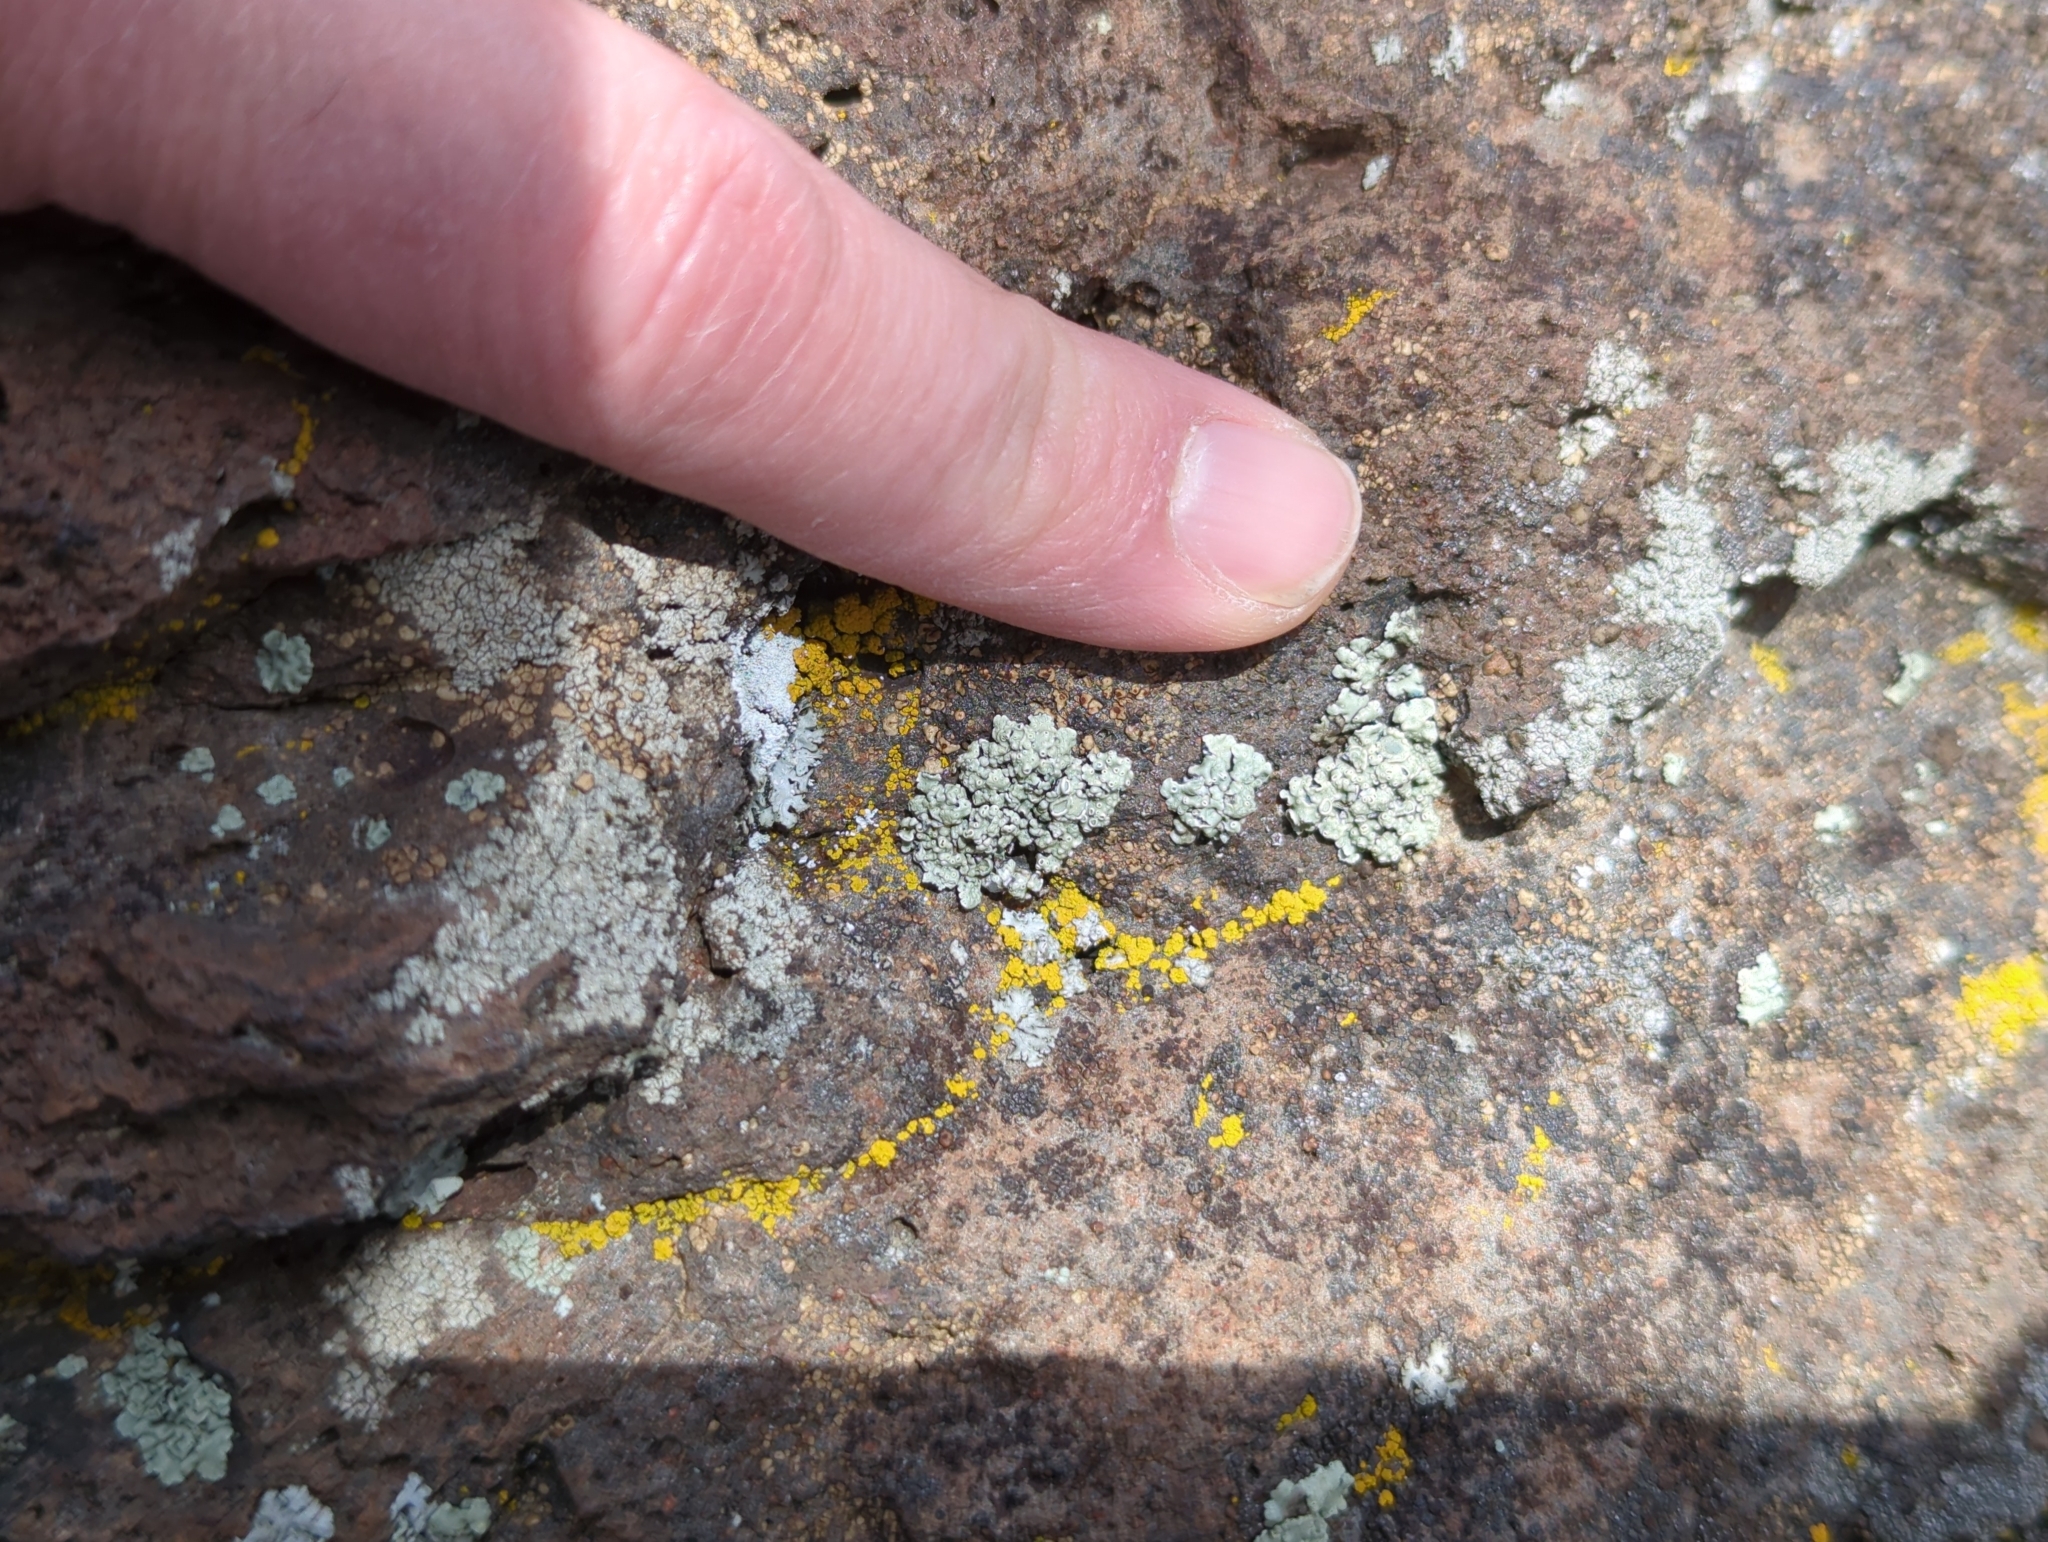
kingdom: Fungi
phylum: Ascomycota
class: Lecanoromycetes
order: Lecanorales
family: Lecanoraceae
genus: Rhizoplaca
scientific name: Rhizoplaca melanophthalma
